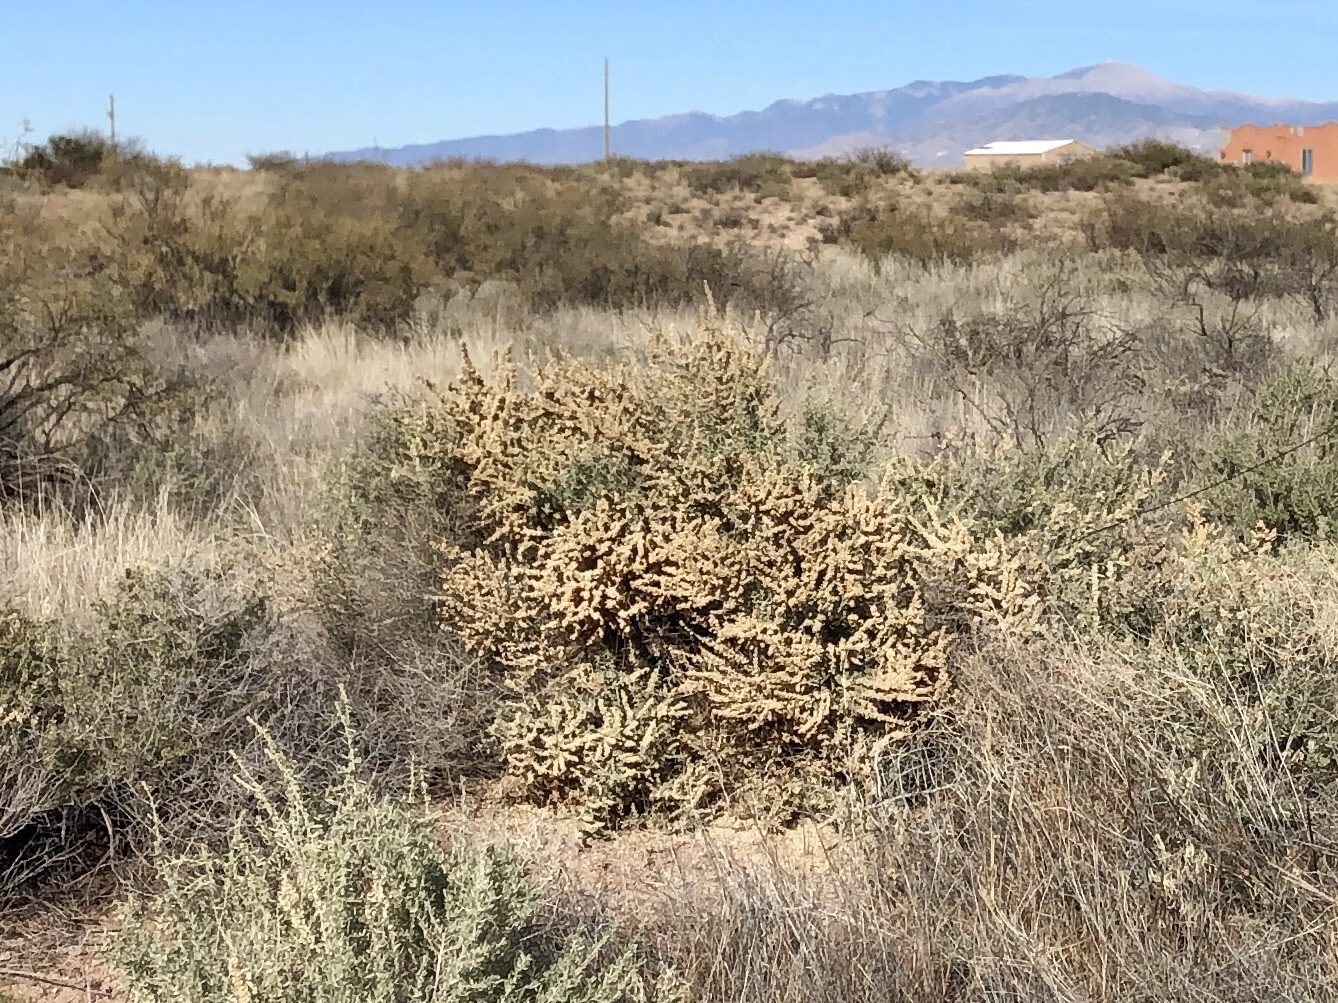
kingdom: Plantae
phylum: Tracheophyta
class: Magnoliopsida
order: Caryophyllales
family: Amaranthaceae
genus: Atriplex
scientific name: Atriplex canescens
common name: Four-wing saltbush
